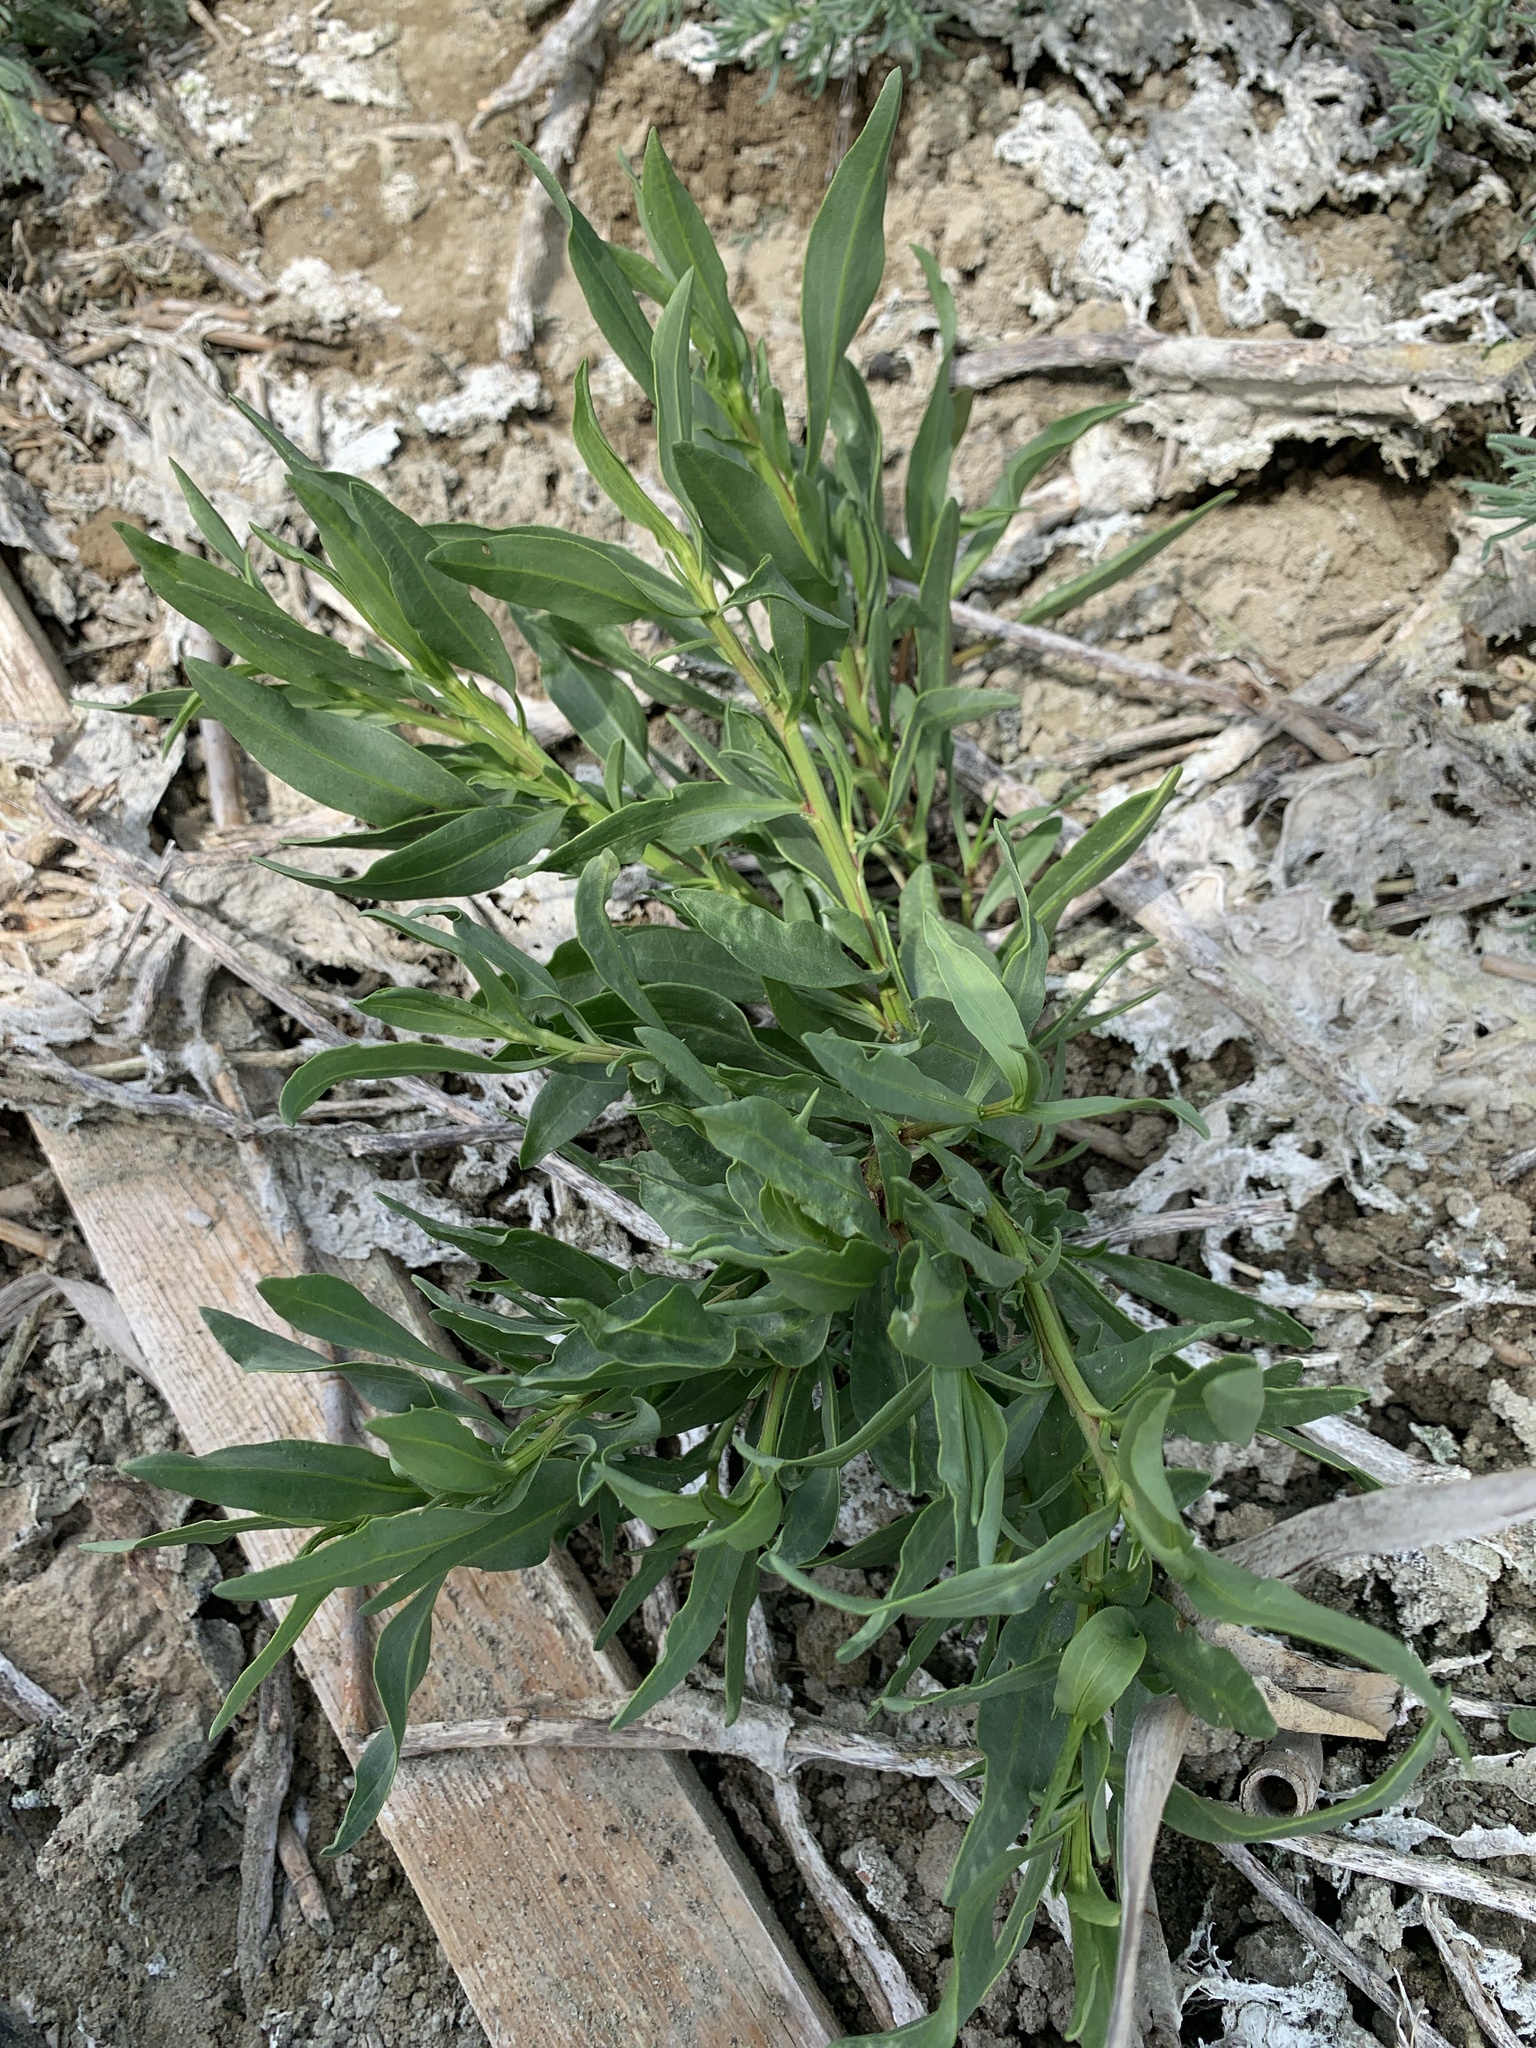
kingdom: Plantae
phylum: Tracheophyta
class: Magnoliopsida
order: Asterales
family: Asteraceae
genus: Tripolium
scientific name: Tripolium pannonicum
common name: Sea aster
